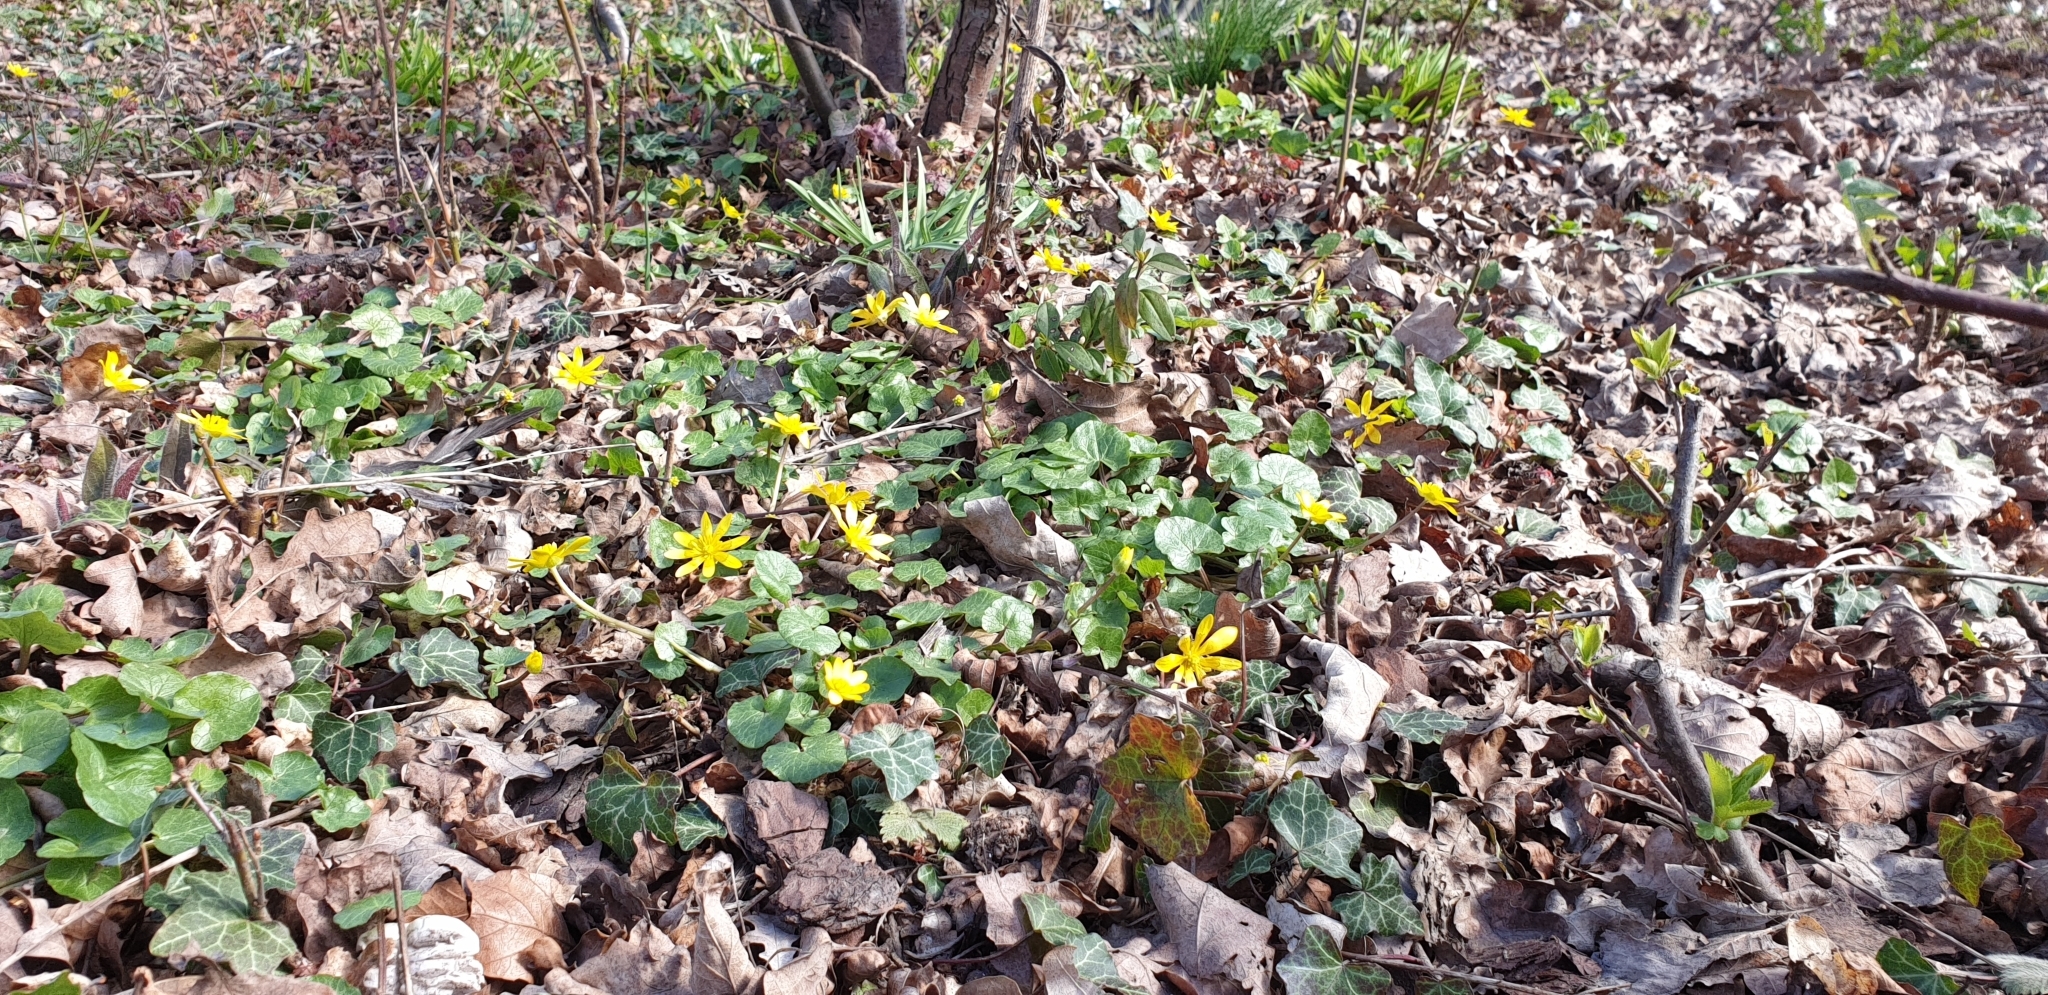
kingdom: Plantae
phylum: Tracheophyta
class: Magnoliopsida
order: Ranunculales
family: Ranunculaceae
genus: Ficaria
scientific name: Ficaria verna
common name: Lesser celandine
